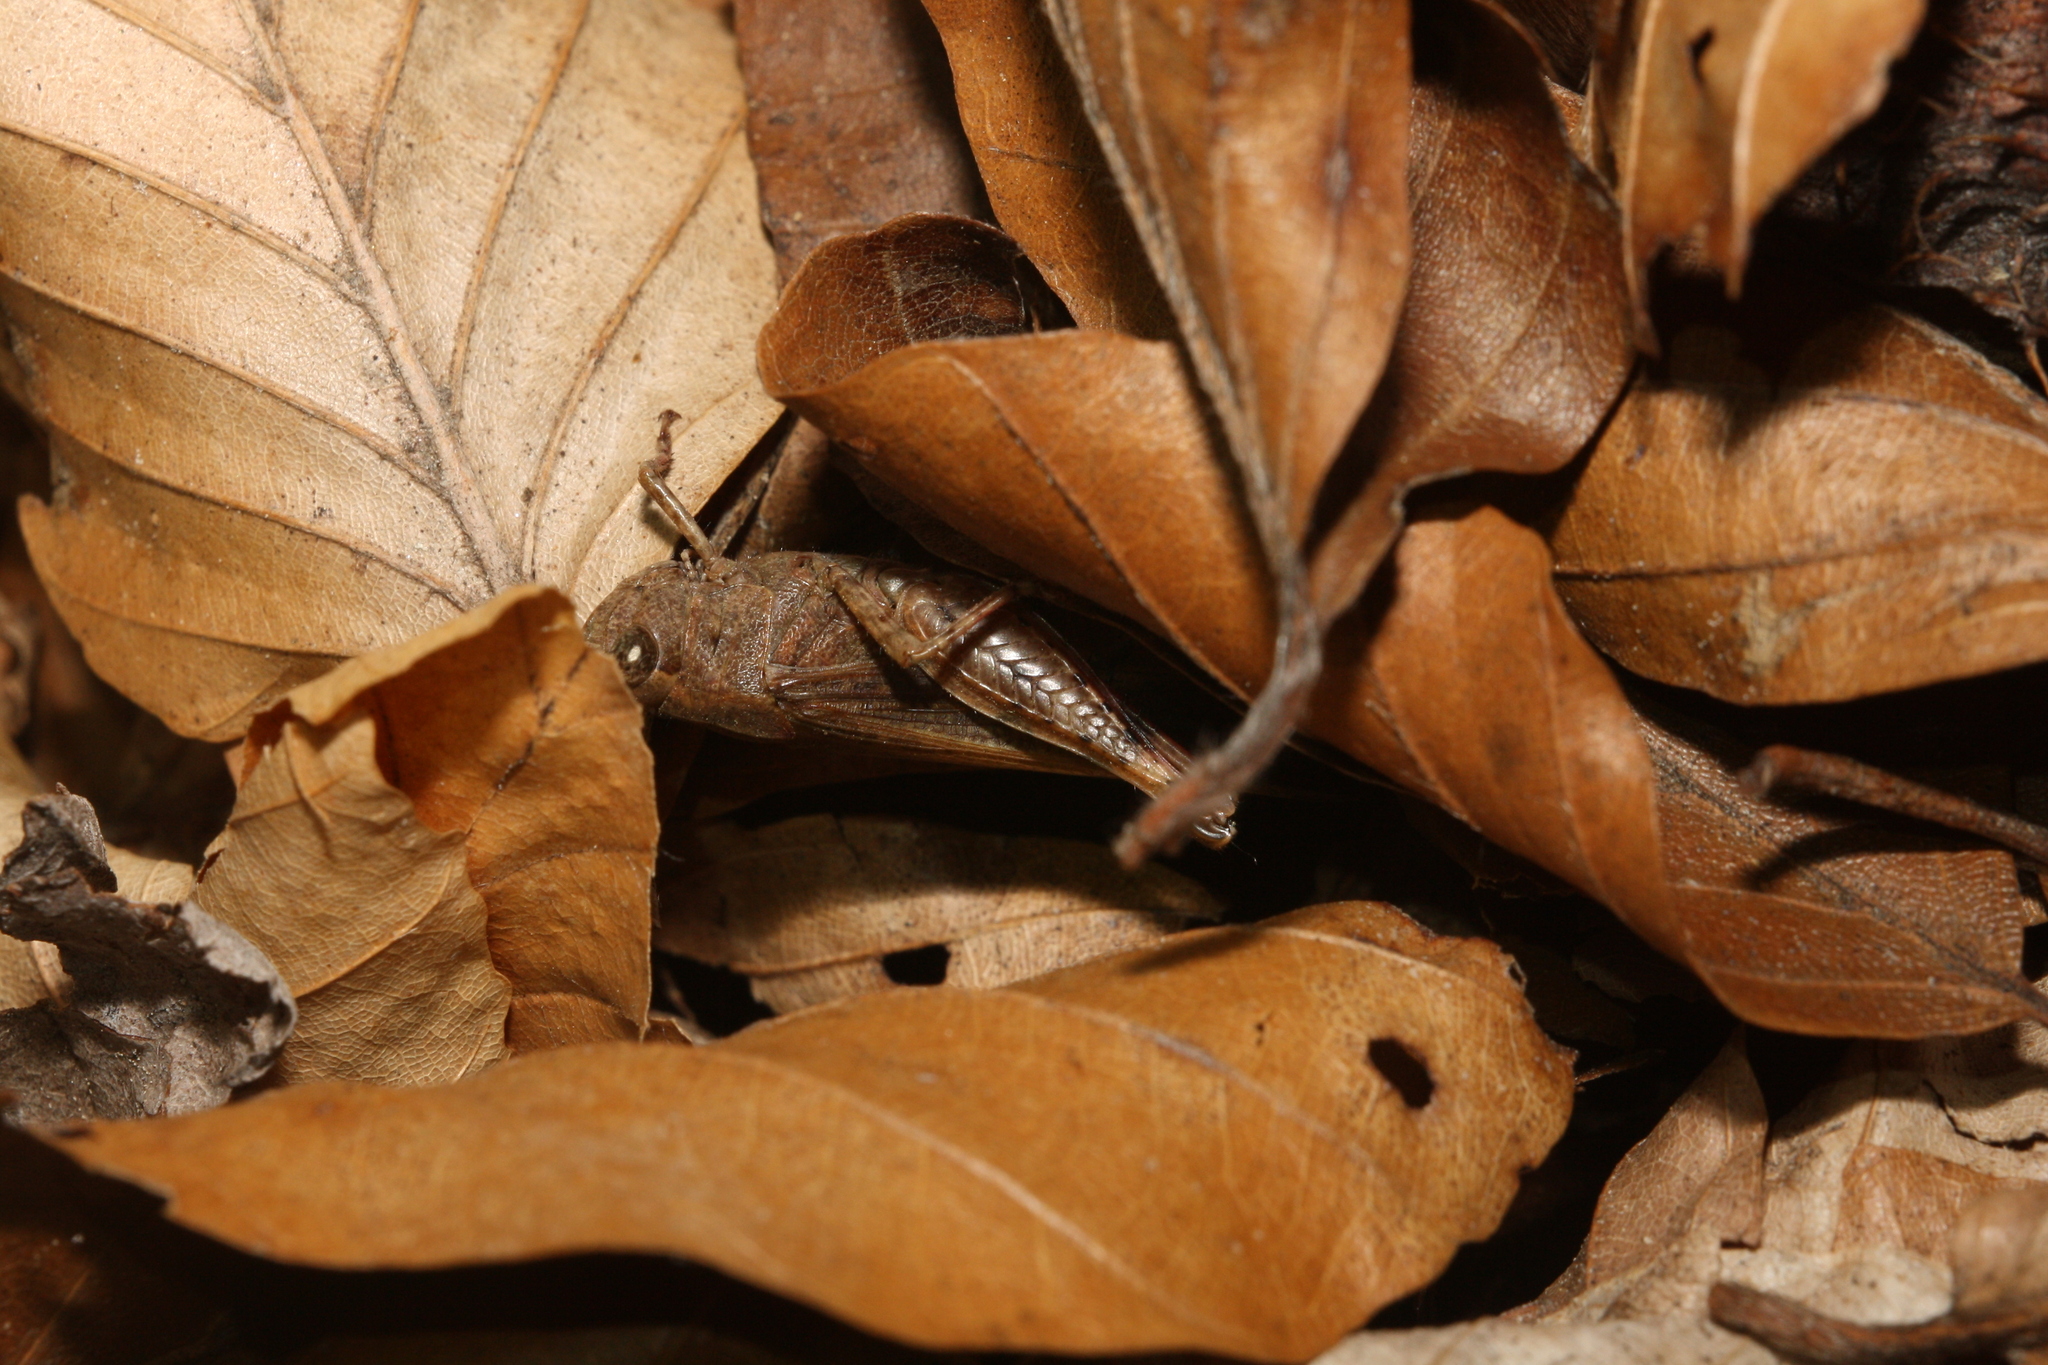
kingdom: Animalia
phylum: Arthropoda
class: Insecta
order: Orthoptera
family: Acrididae
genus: Aiolopus
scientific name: Aiolopus strepens
